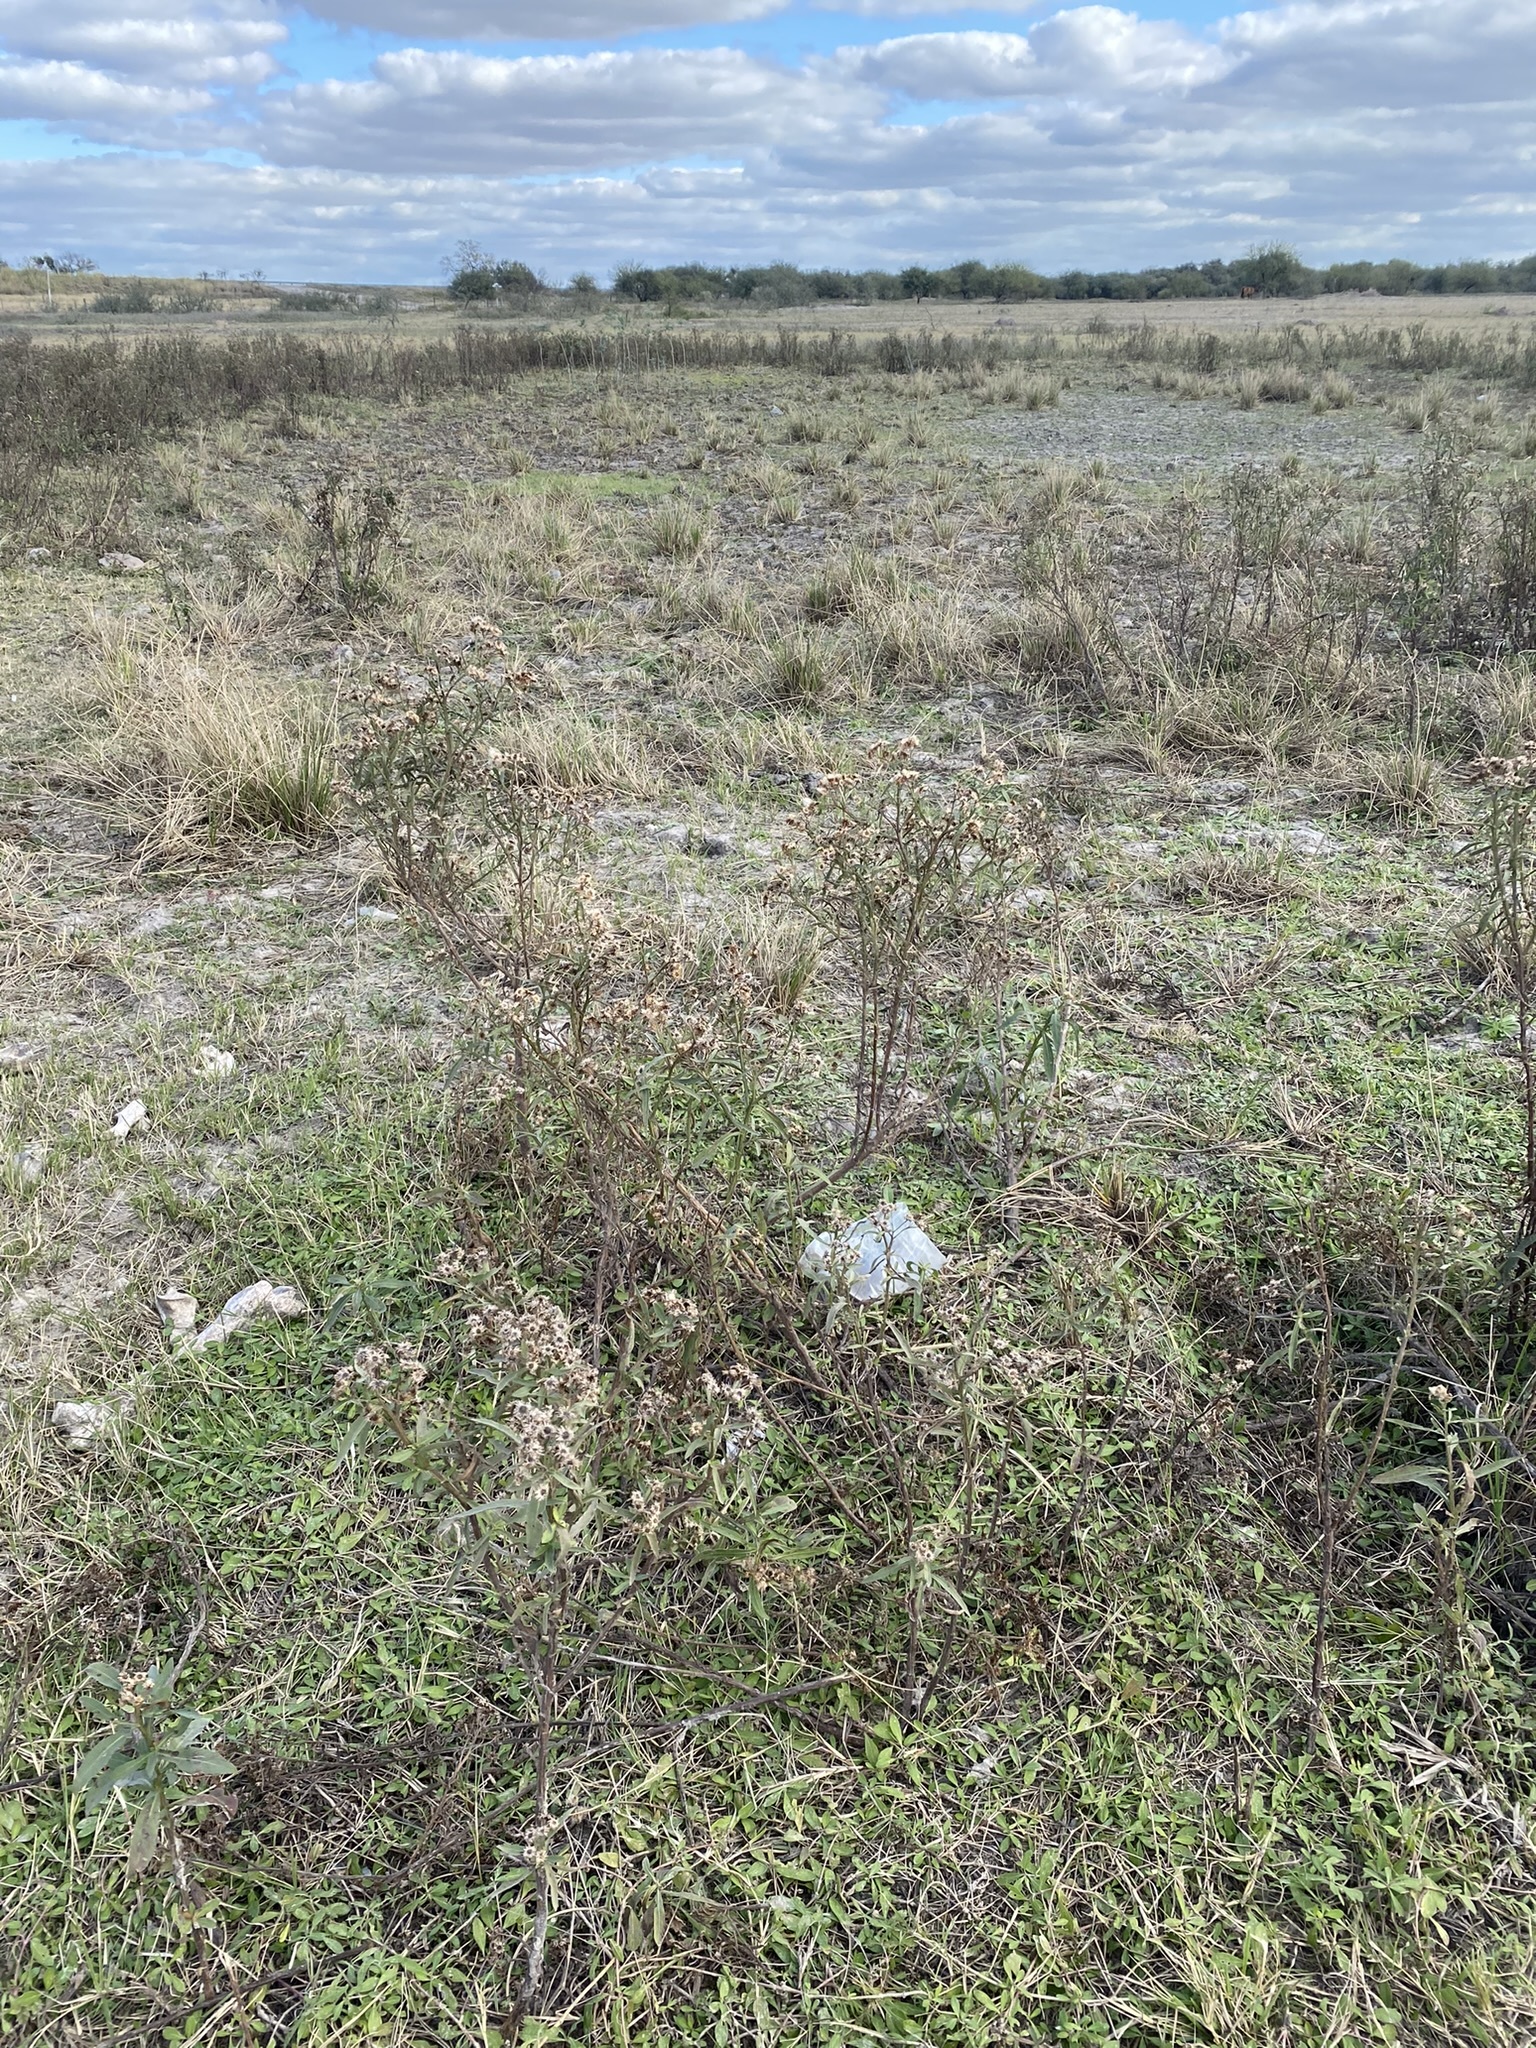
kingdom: Plantae
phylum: Tracheophyta
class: Magnoliopsida
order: Asterales
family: Asteraceae
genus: Pluchea
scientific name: Pluchea sagittalis
